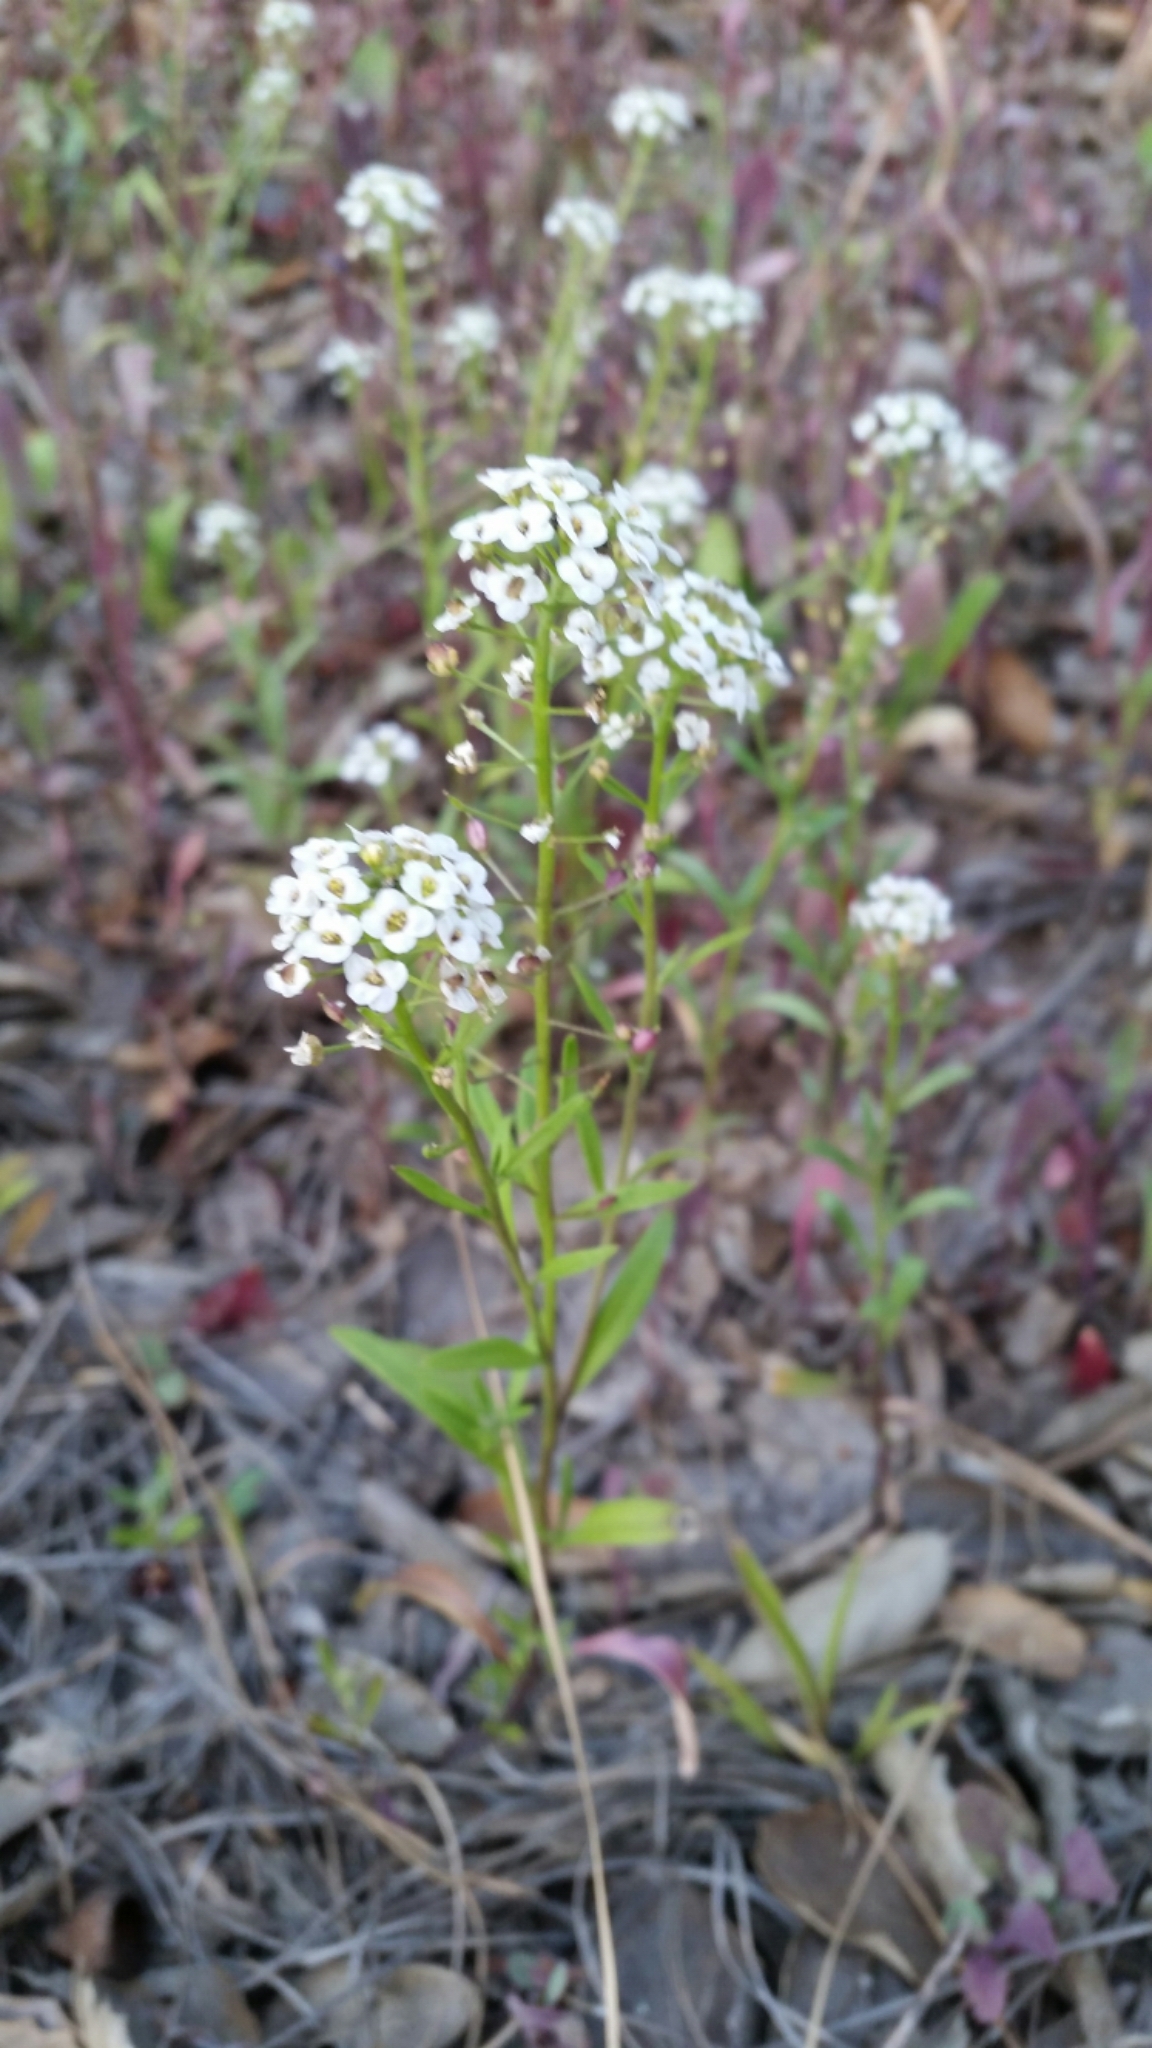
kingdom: Plantae
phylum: Tracheophyta
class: Magnoliopsida
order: Brassicales
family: Brassicaceae
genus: Lobularia
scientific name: Lobularia maritima
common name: Sweet alison
